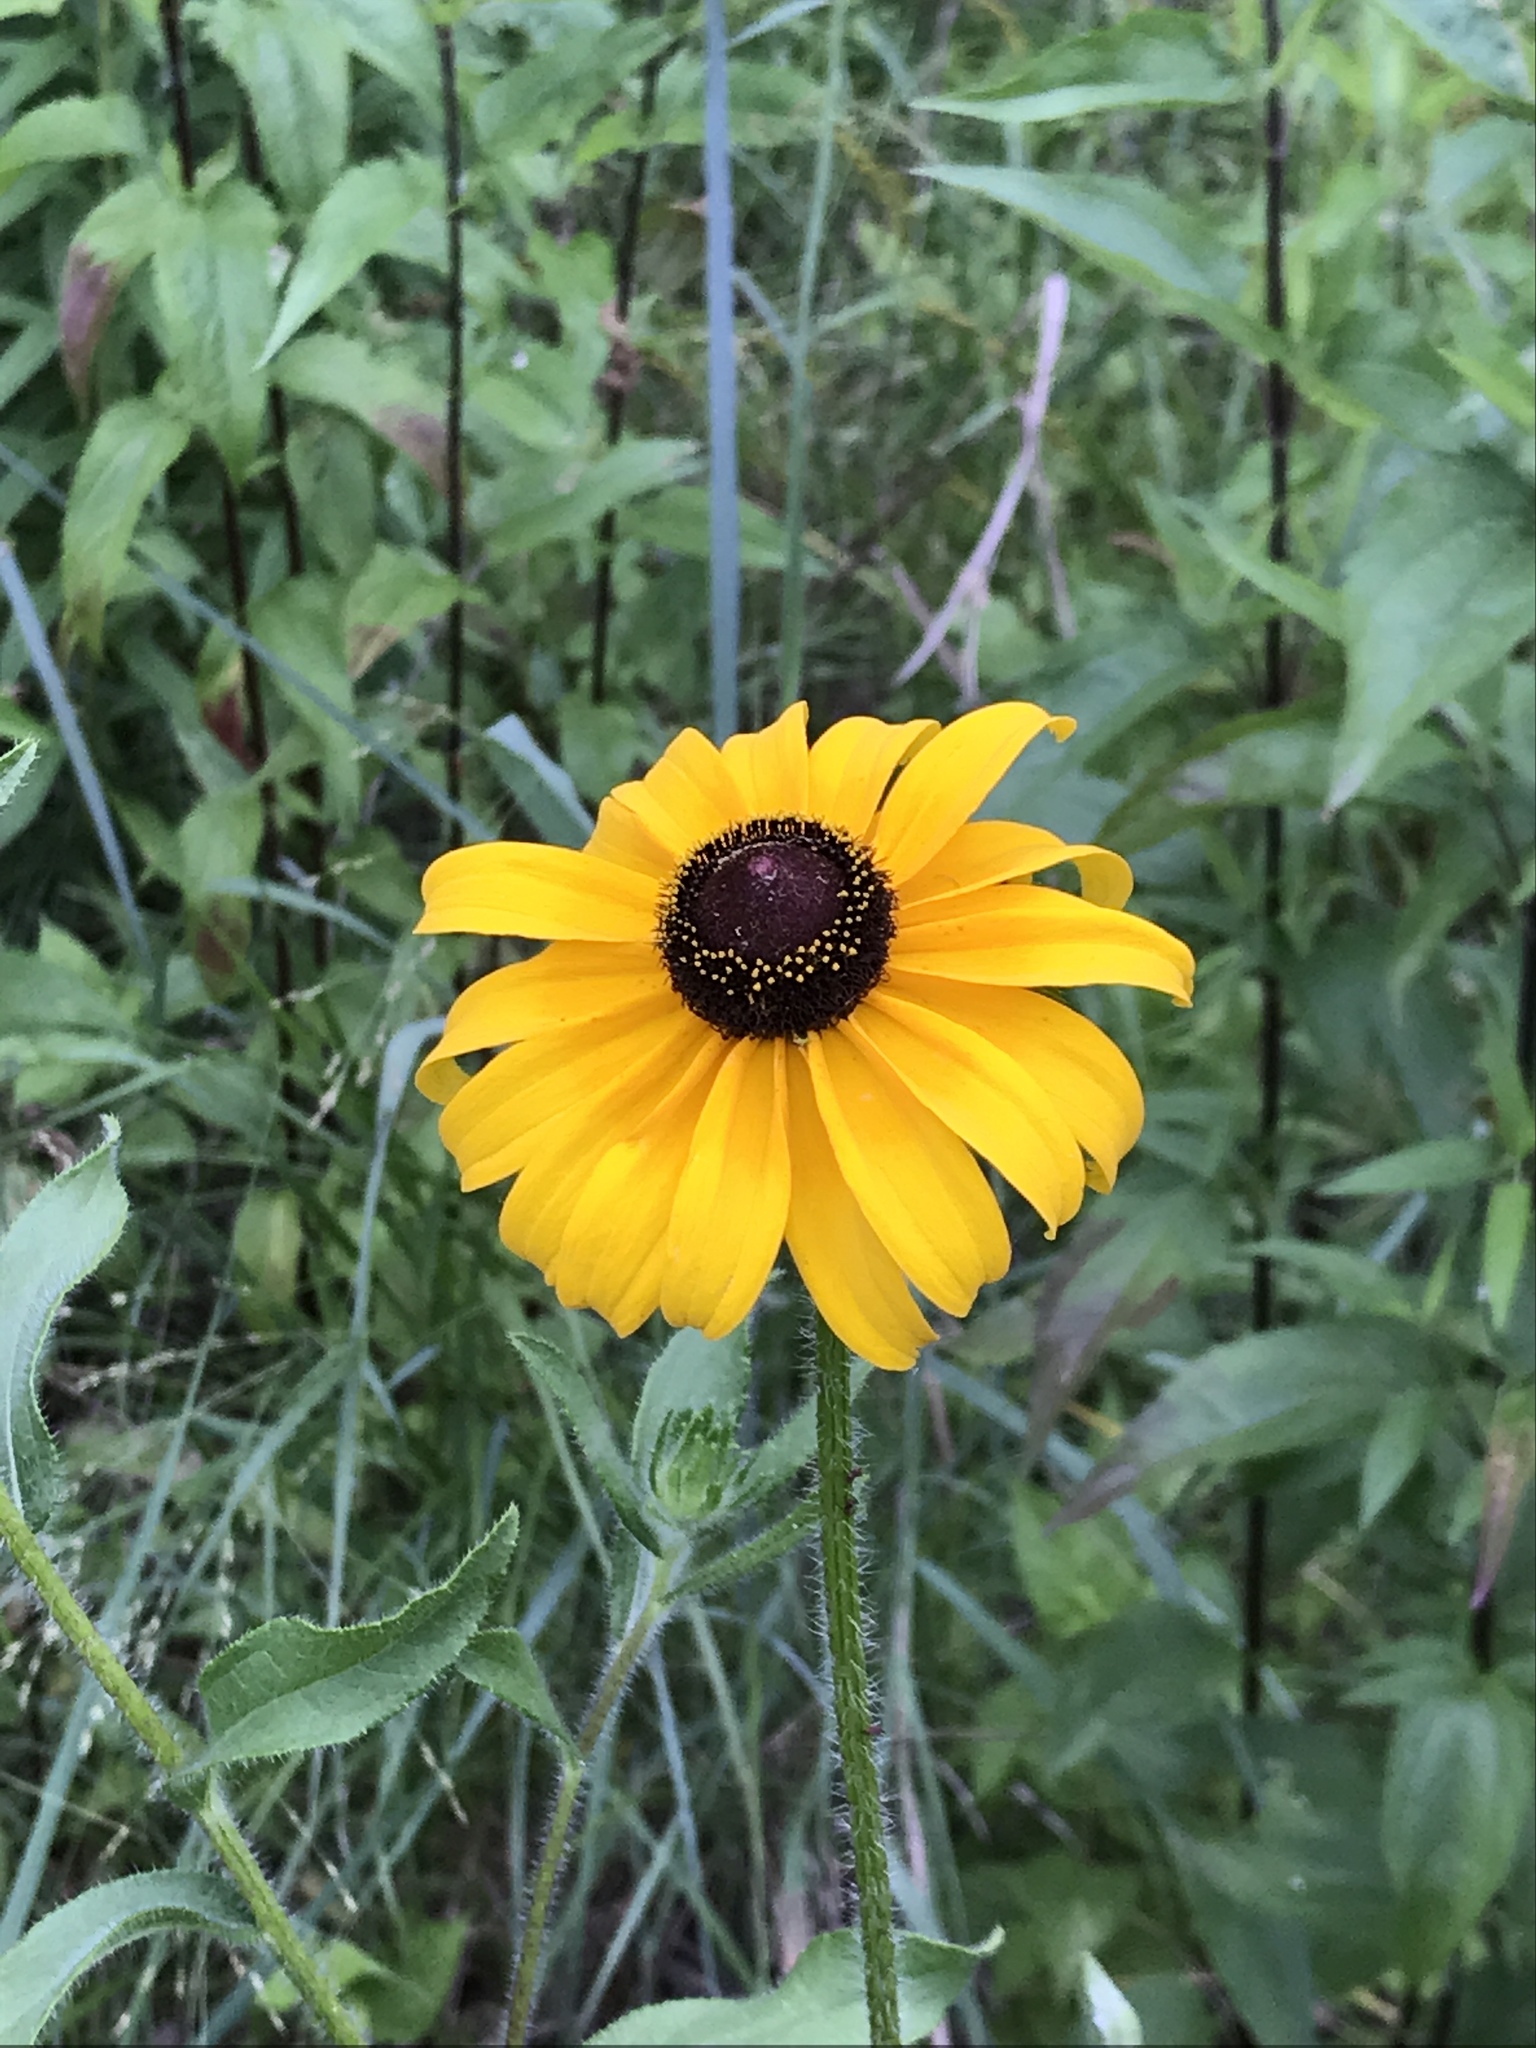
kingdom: Plantae
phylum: Tracheophyta
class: Magnoliopsida
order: Asterales
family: Asteraceae
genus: Rudbeckia
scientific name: Rudbeckia hirta
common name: Black-eyed-susan
